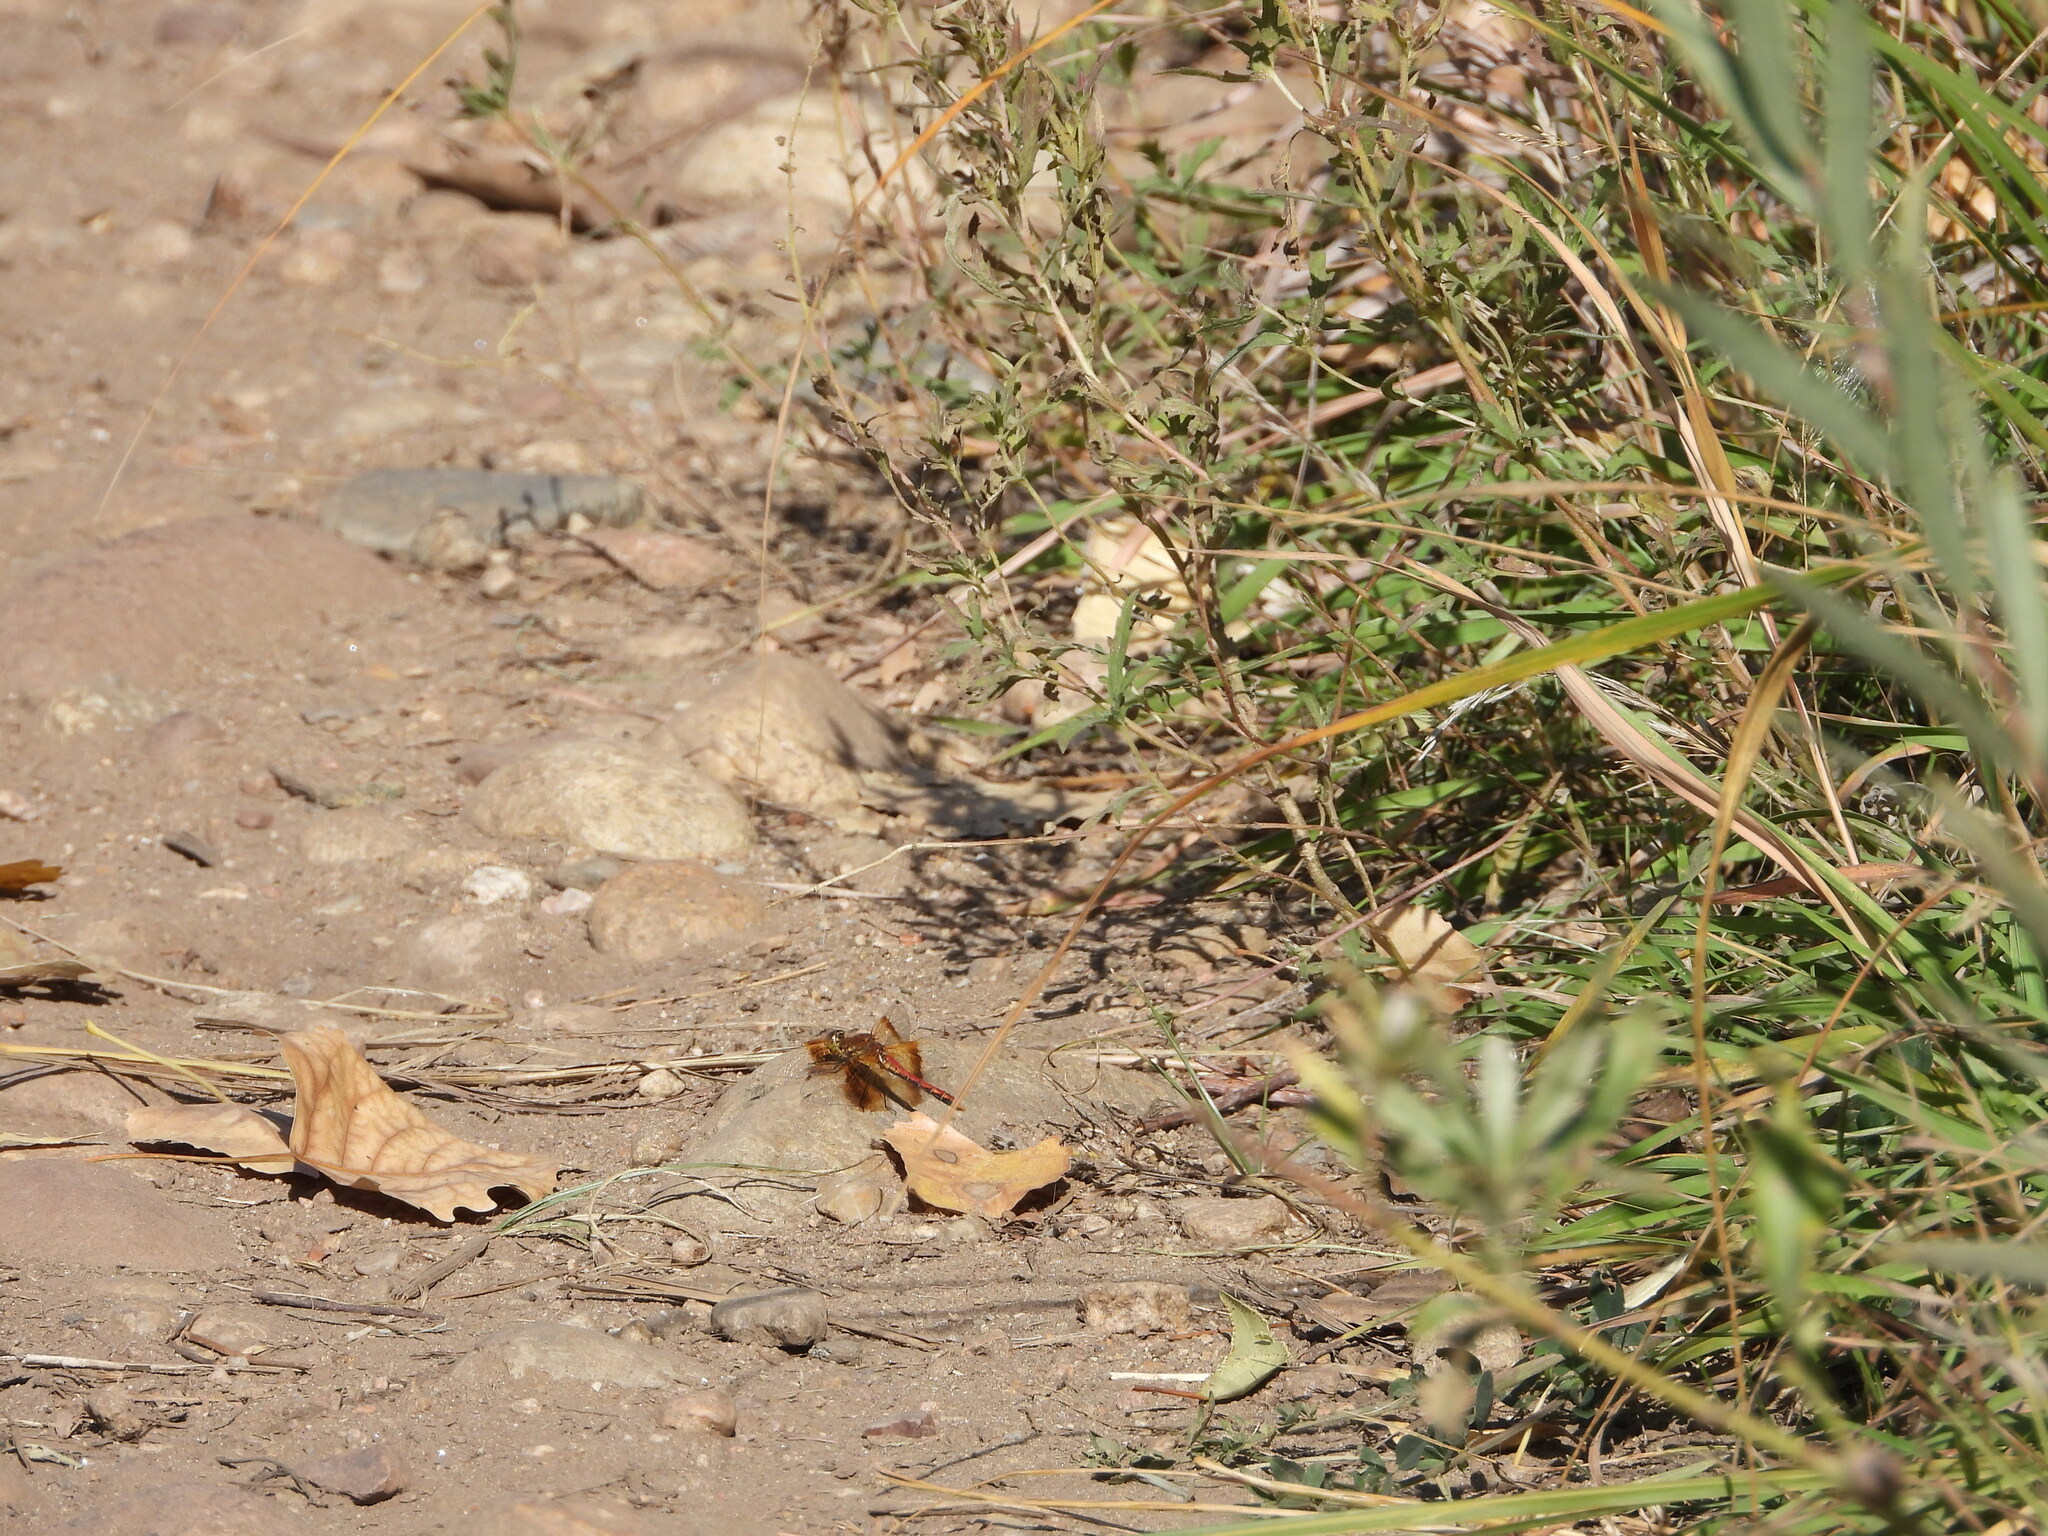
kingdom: Animalia
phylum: Arthropoda
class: Insecta
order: Odonata
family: Libellulidae
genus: Sympetrum
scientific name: Sympetrum semicinctum
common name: Band-winged meadowhawk
